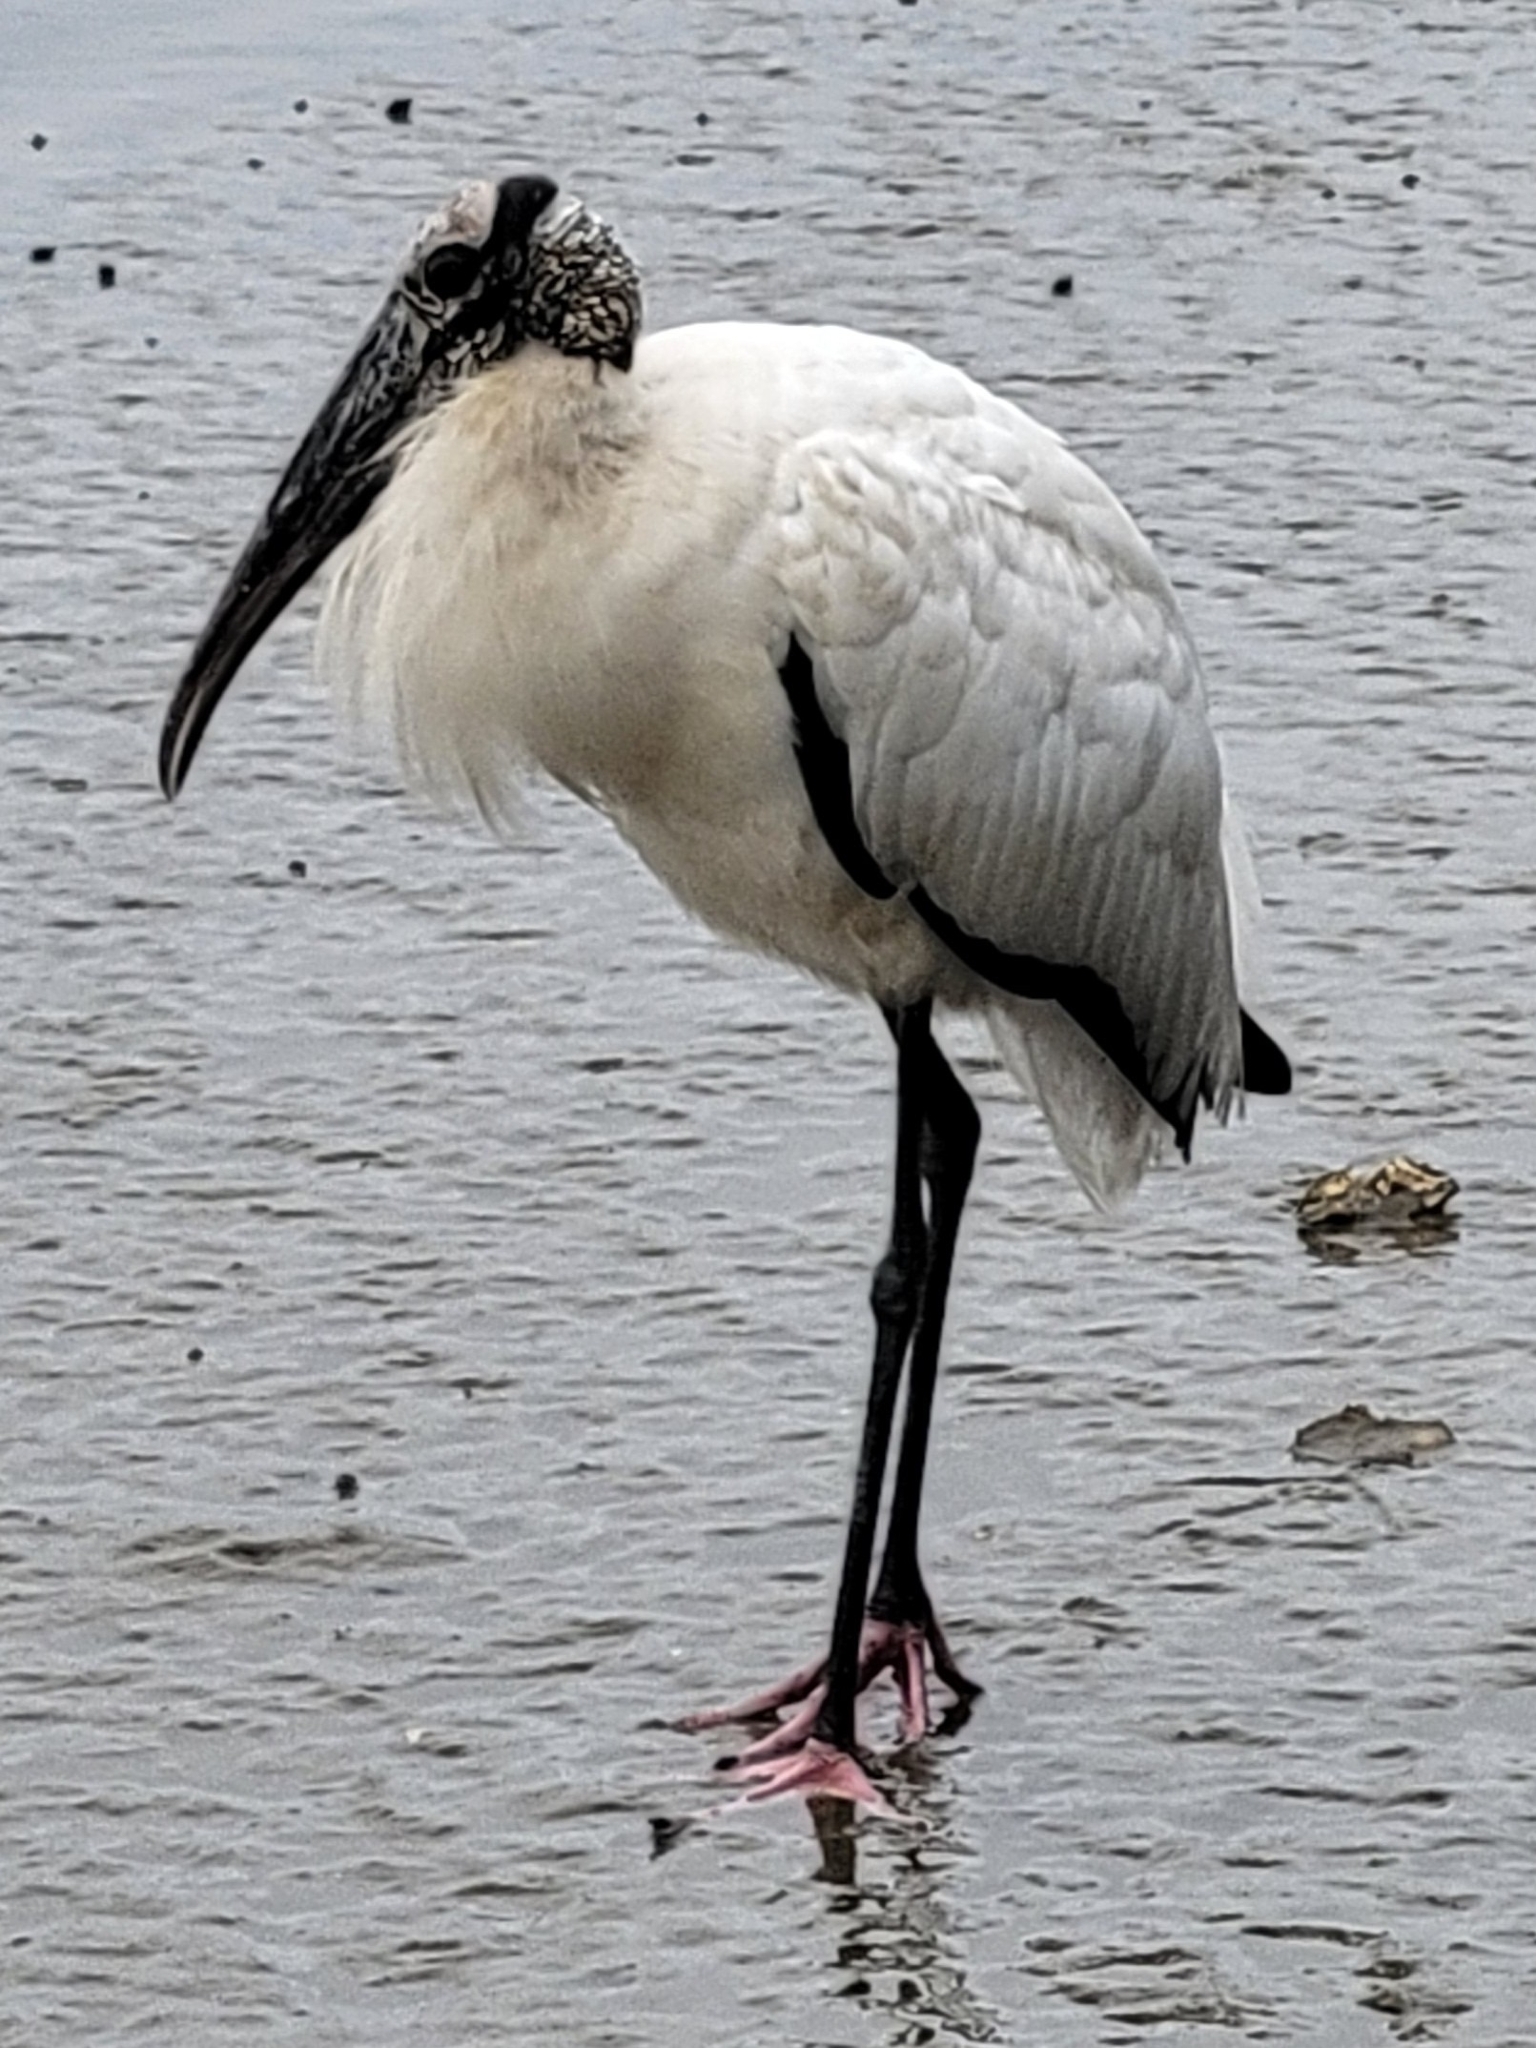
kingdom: Animalia
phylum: Chordata
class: Aves
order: Ciconiiformes
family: Ciconiidae
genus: Mycteria
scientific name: Mycteria americana
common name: Wood stork
